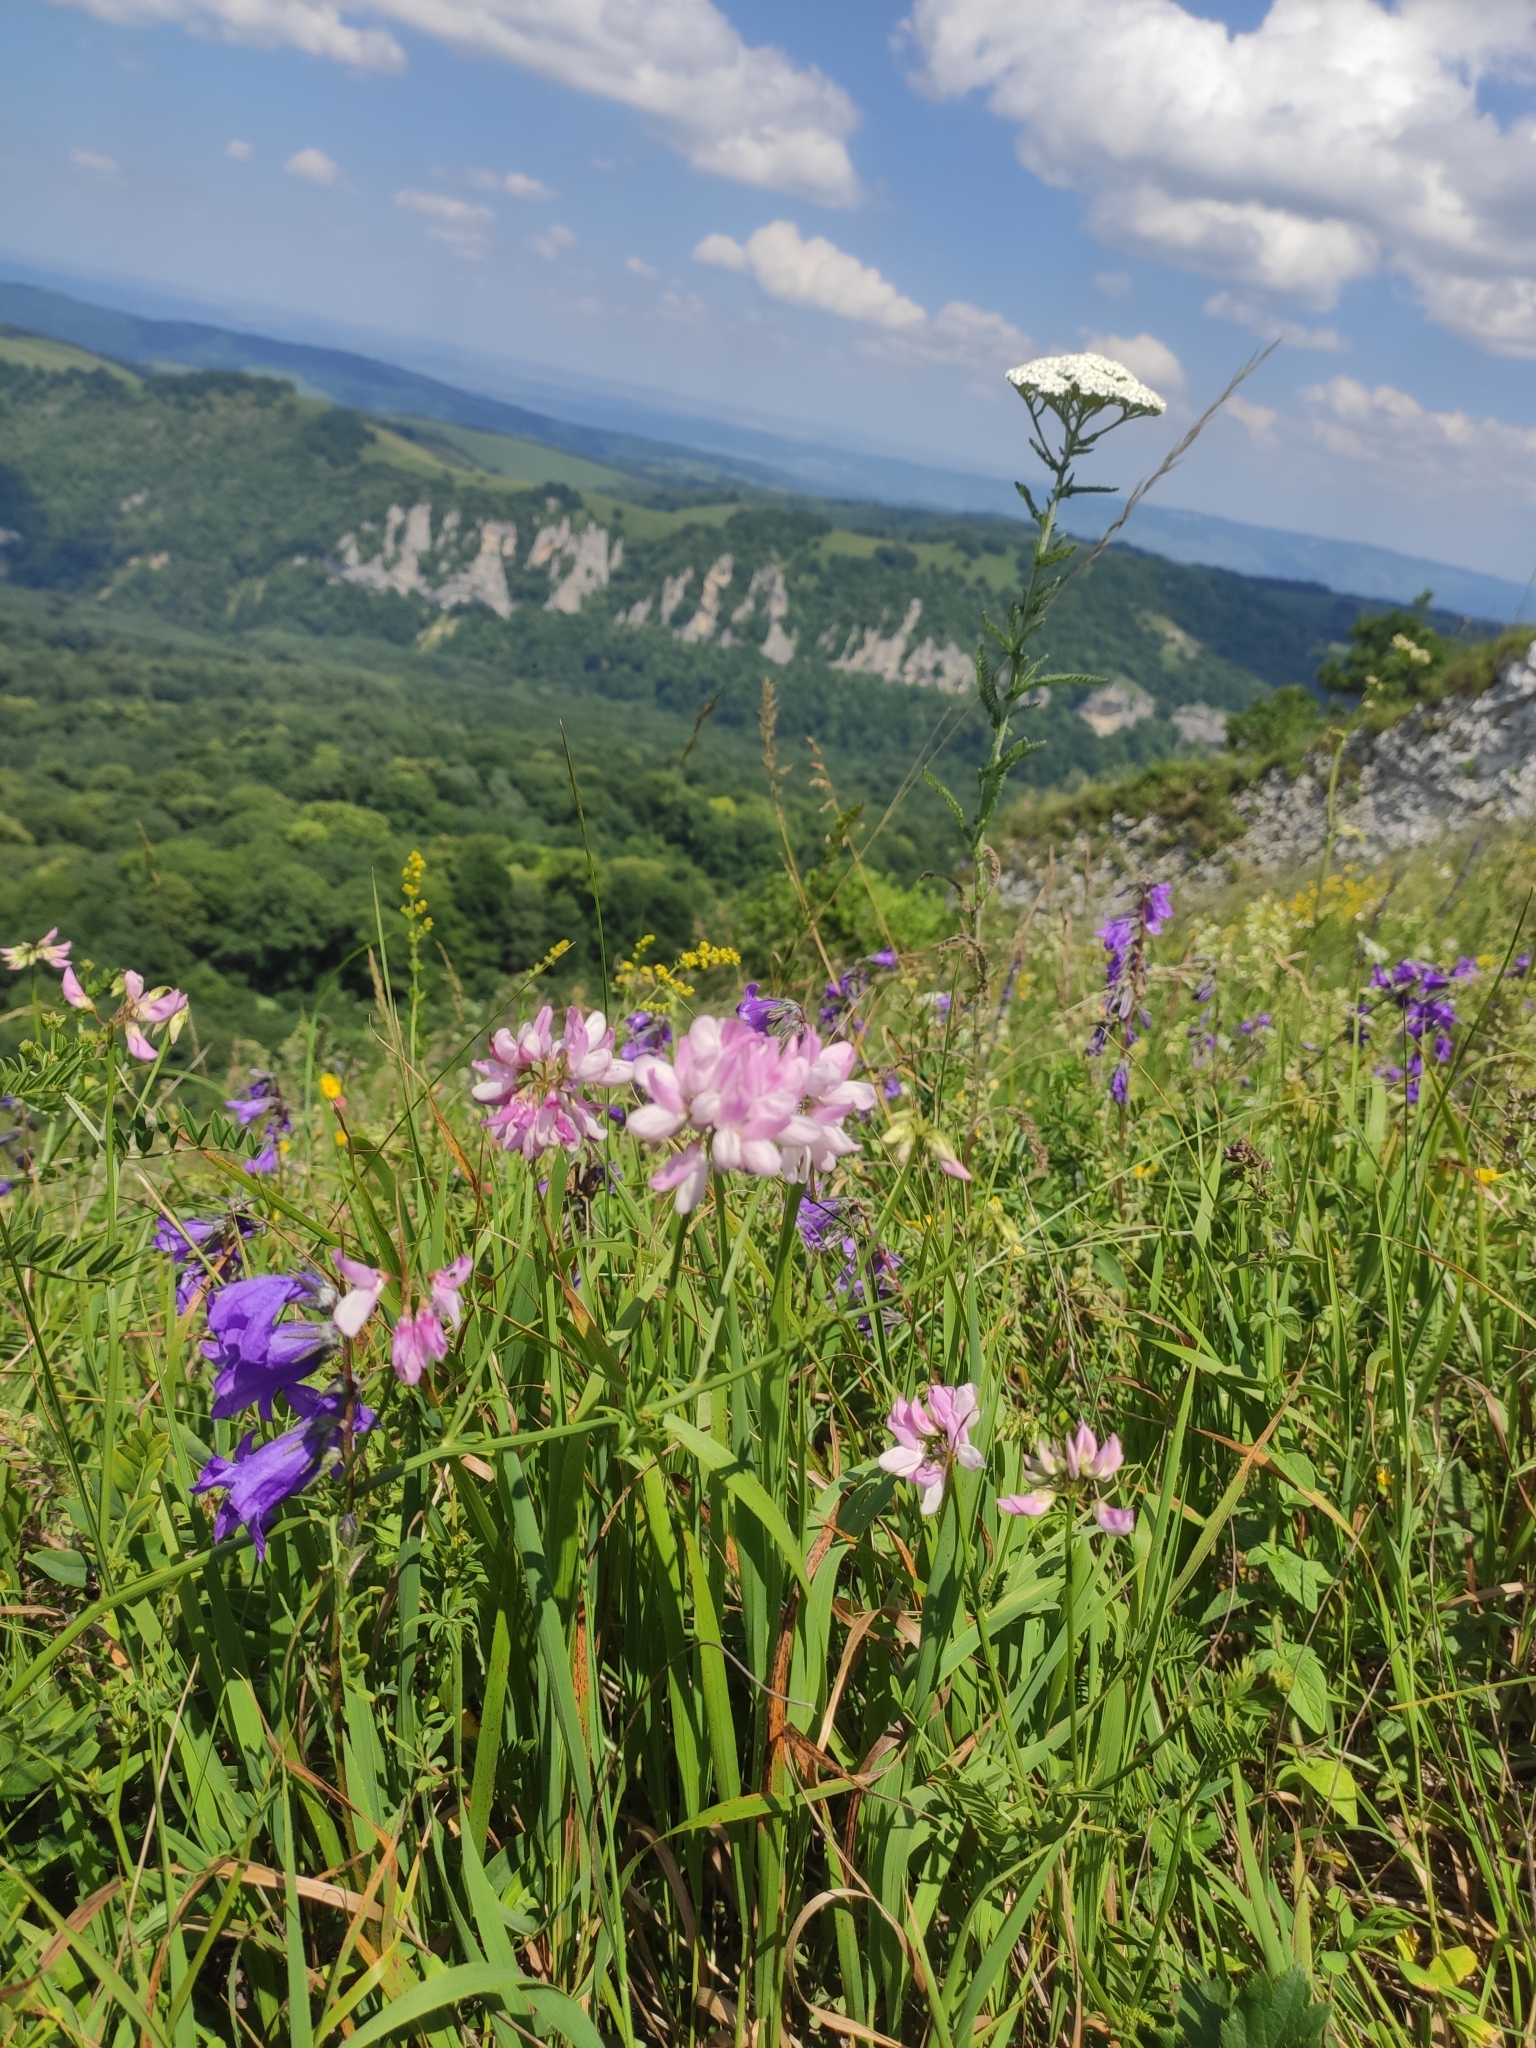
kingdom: Plantae
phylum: Tracheophyta
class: Magnoliopsida
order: Fabales
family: Fabaceae
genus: Coronilla
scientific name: Coronilla varia
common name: Crownvetch
